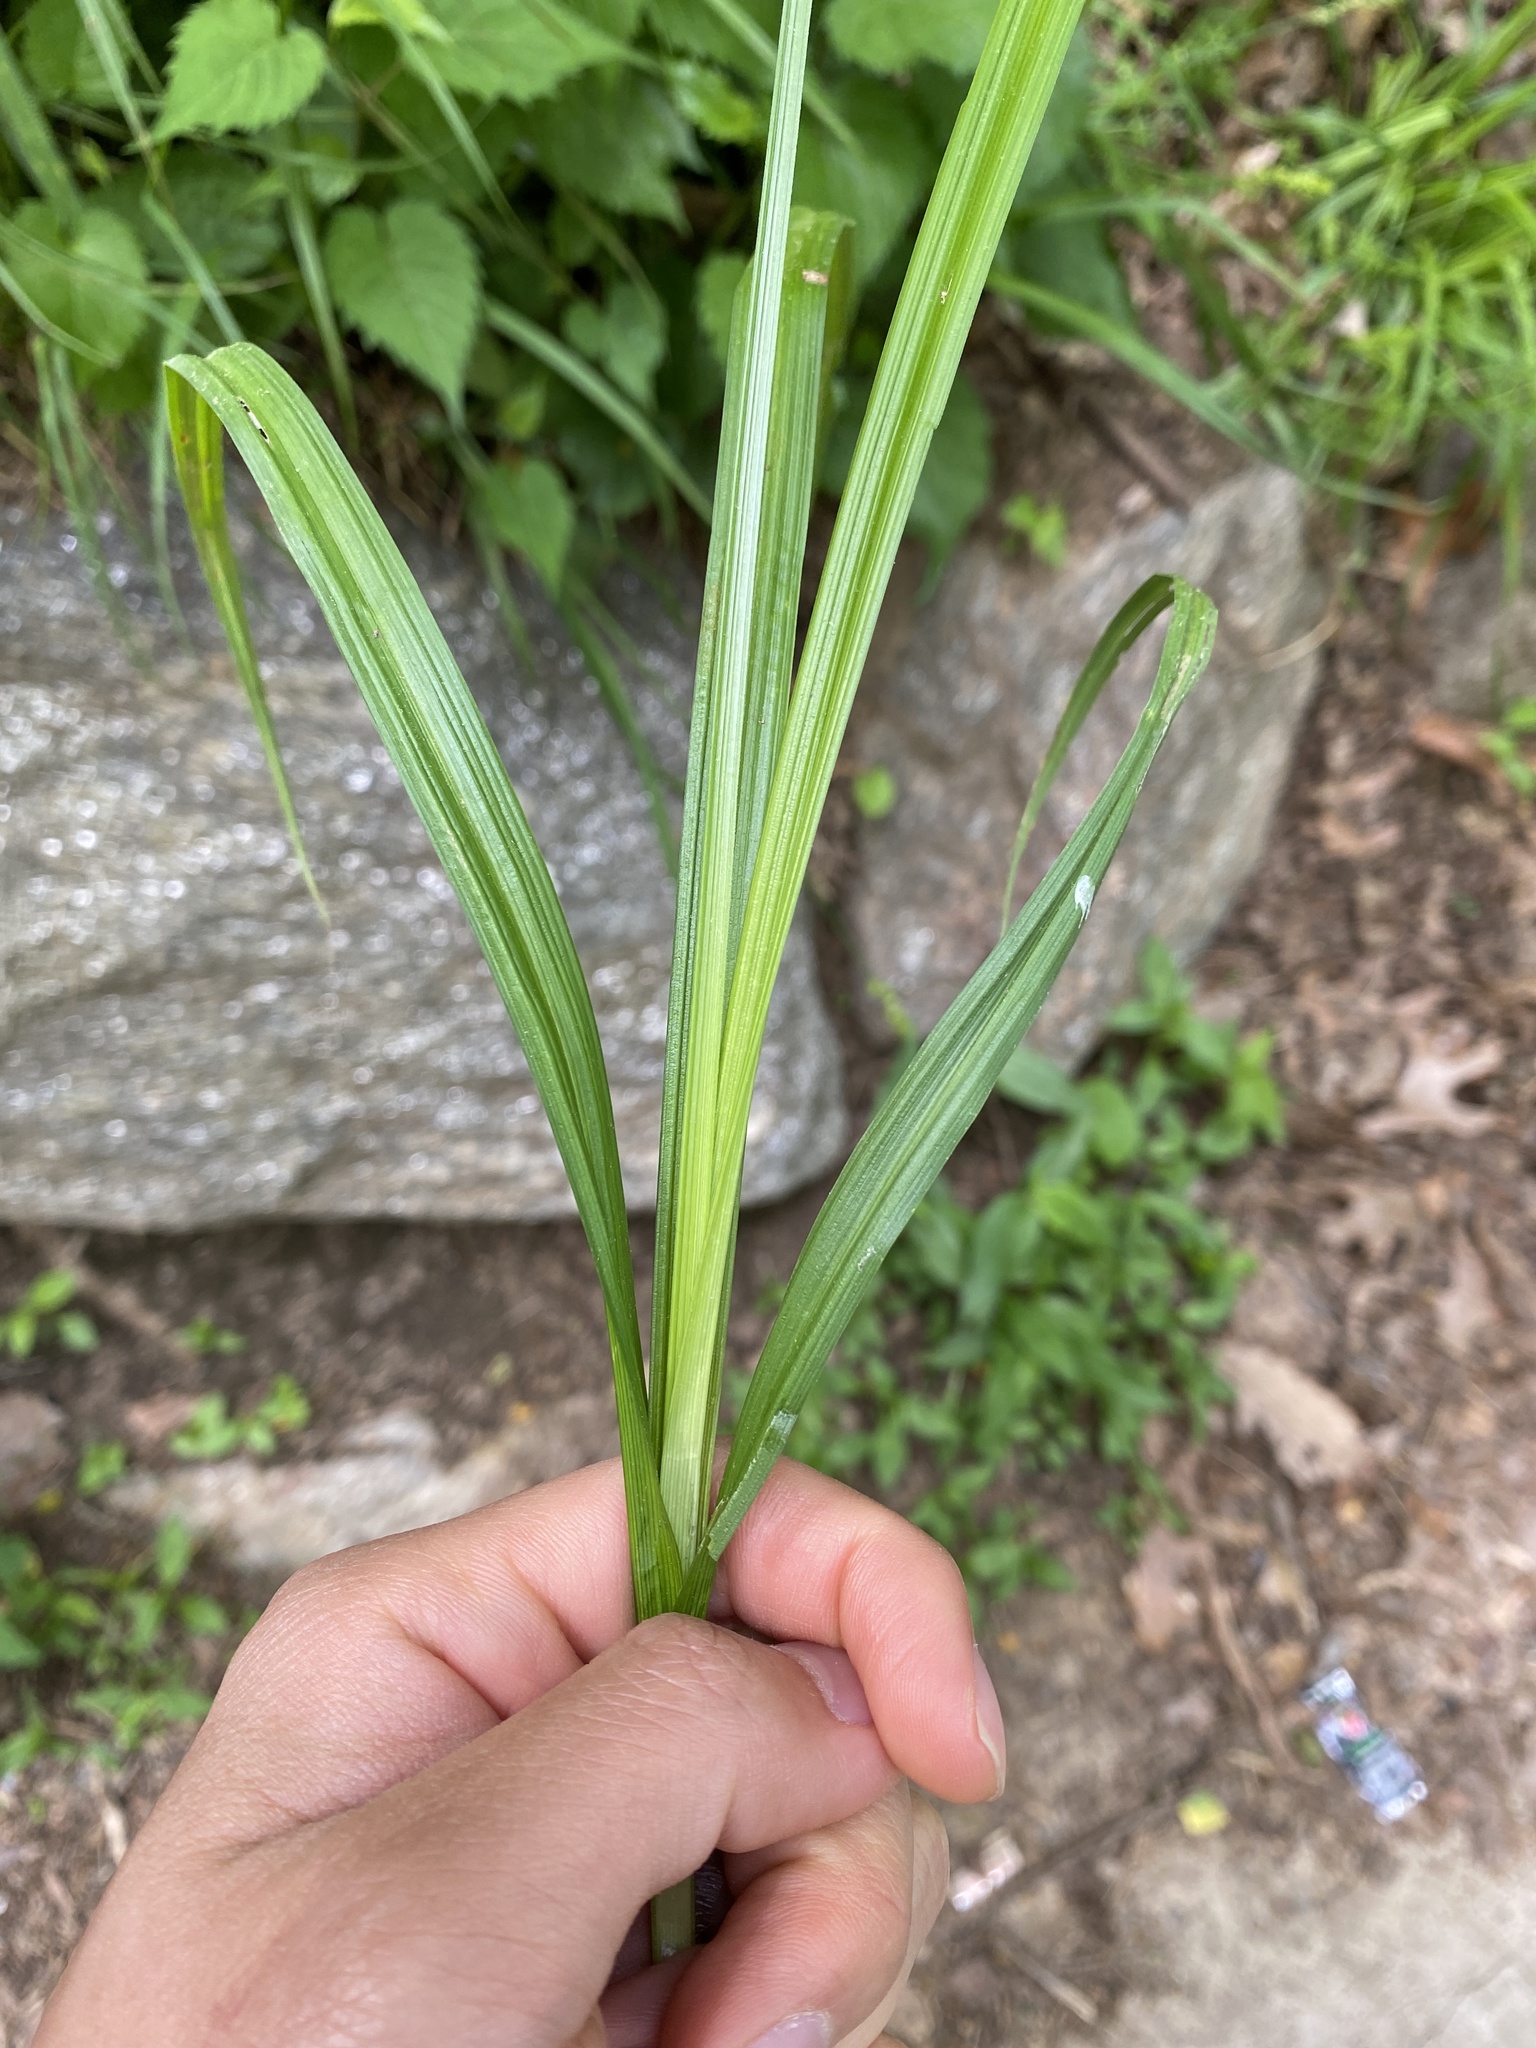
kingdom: Plantae
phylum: Tracheophyta
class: Liliopsida
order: Poales
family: Cyperaceae
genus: Carex
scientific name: Carex sparganioides
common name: Burreed sedge
